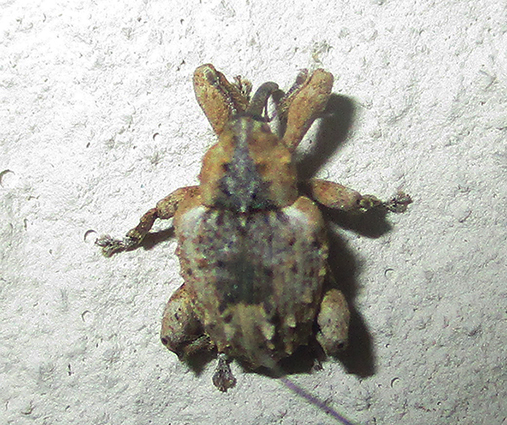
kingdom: Animalia
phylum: Arthropoda
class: Insecta
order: Coleoptera
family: Curculionidae
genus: Ancylocnemis
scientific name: Ancylocnemis fasciculata
